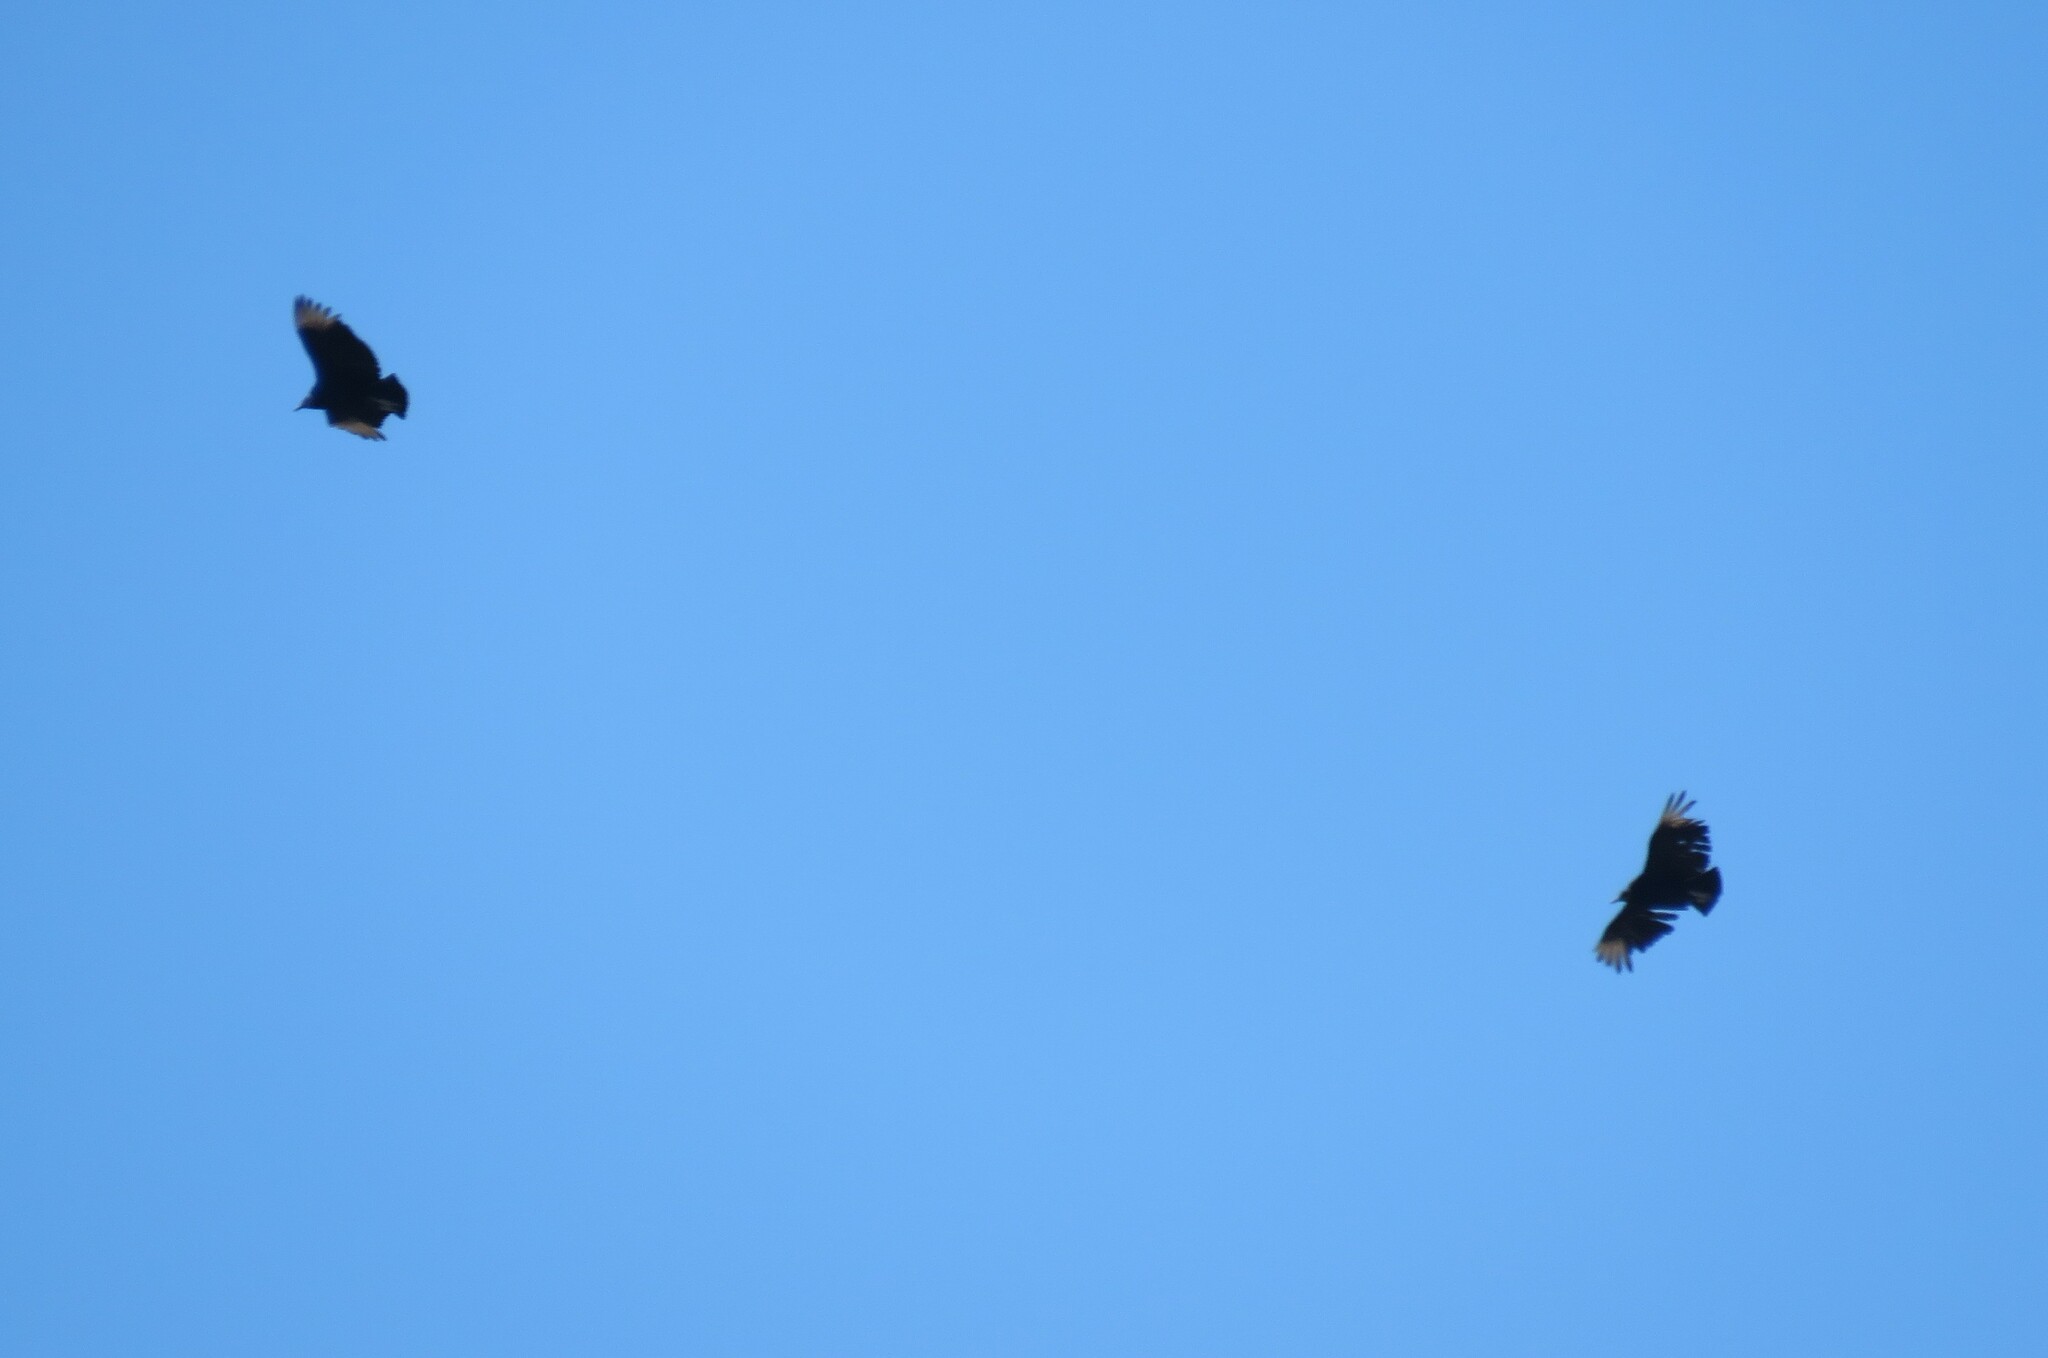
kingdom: Animalia
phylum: Chordata
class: Aves
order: Accipitriformes
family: Cathartidae
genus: Coragyps
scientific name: Coragyps atratus
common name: Black vulture
